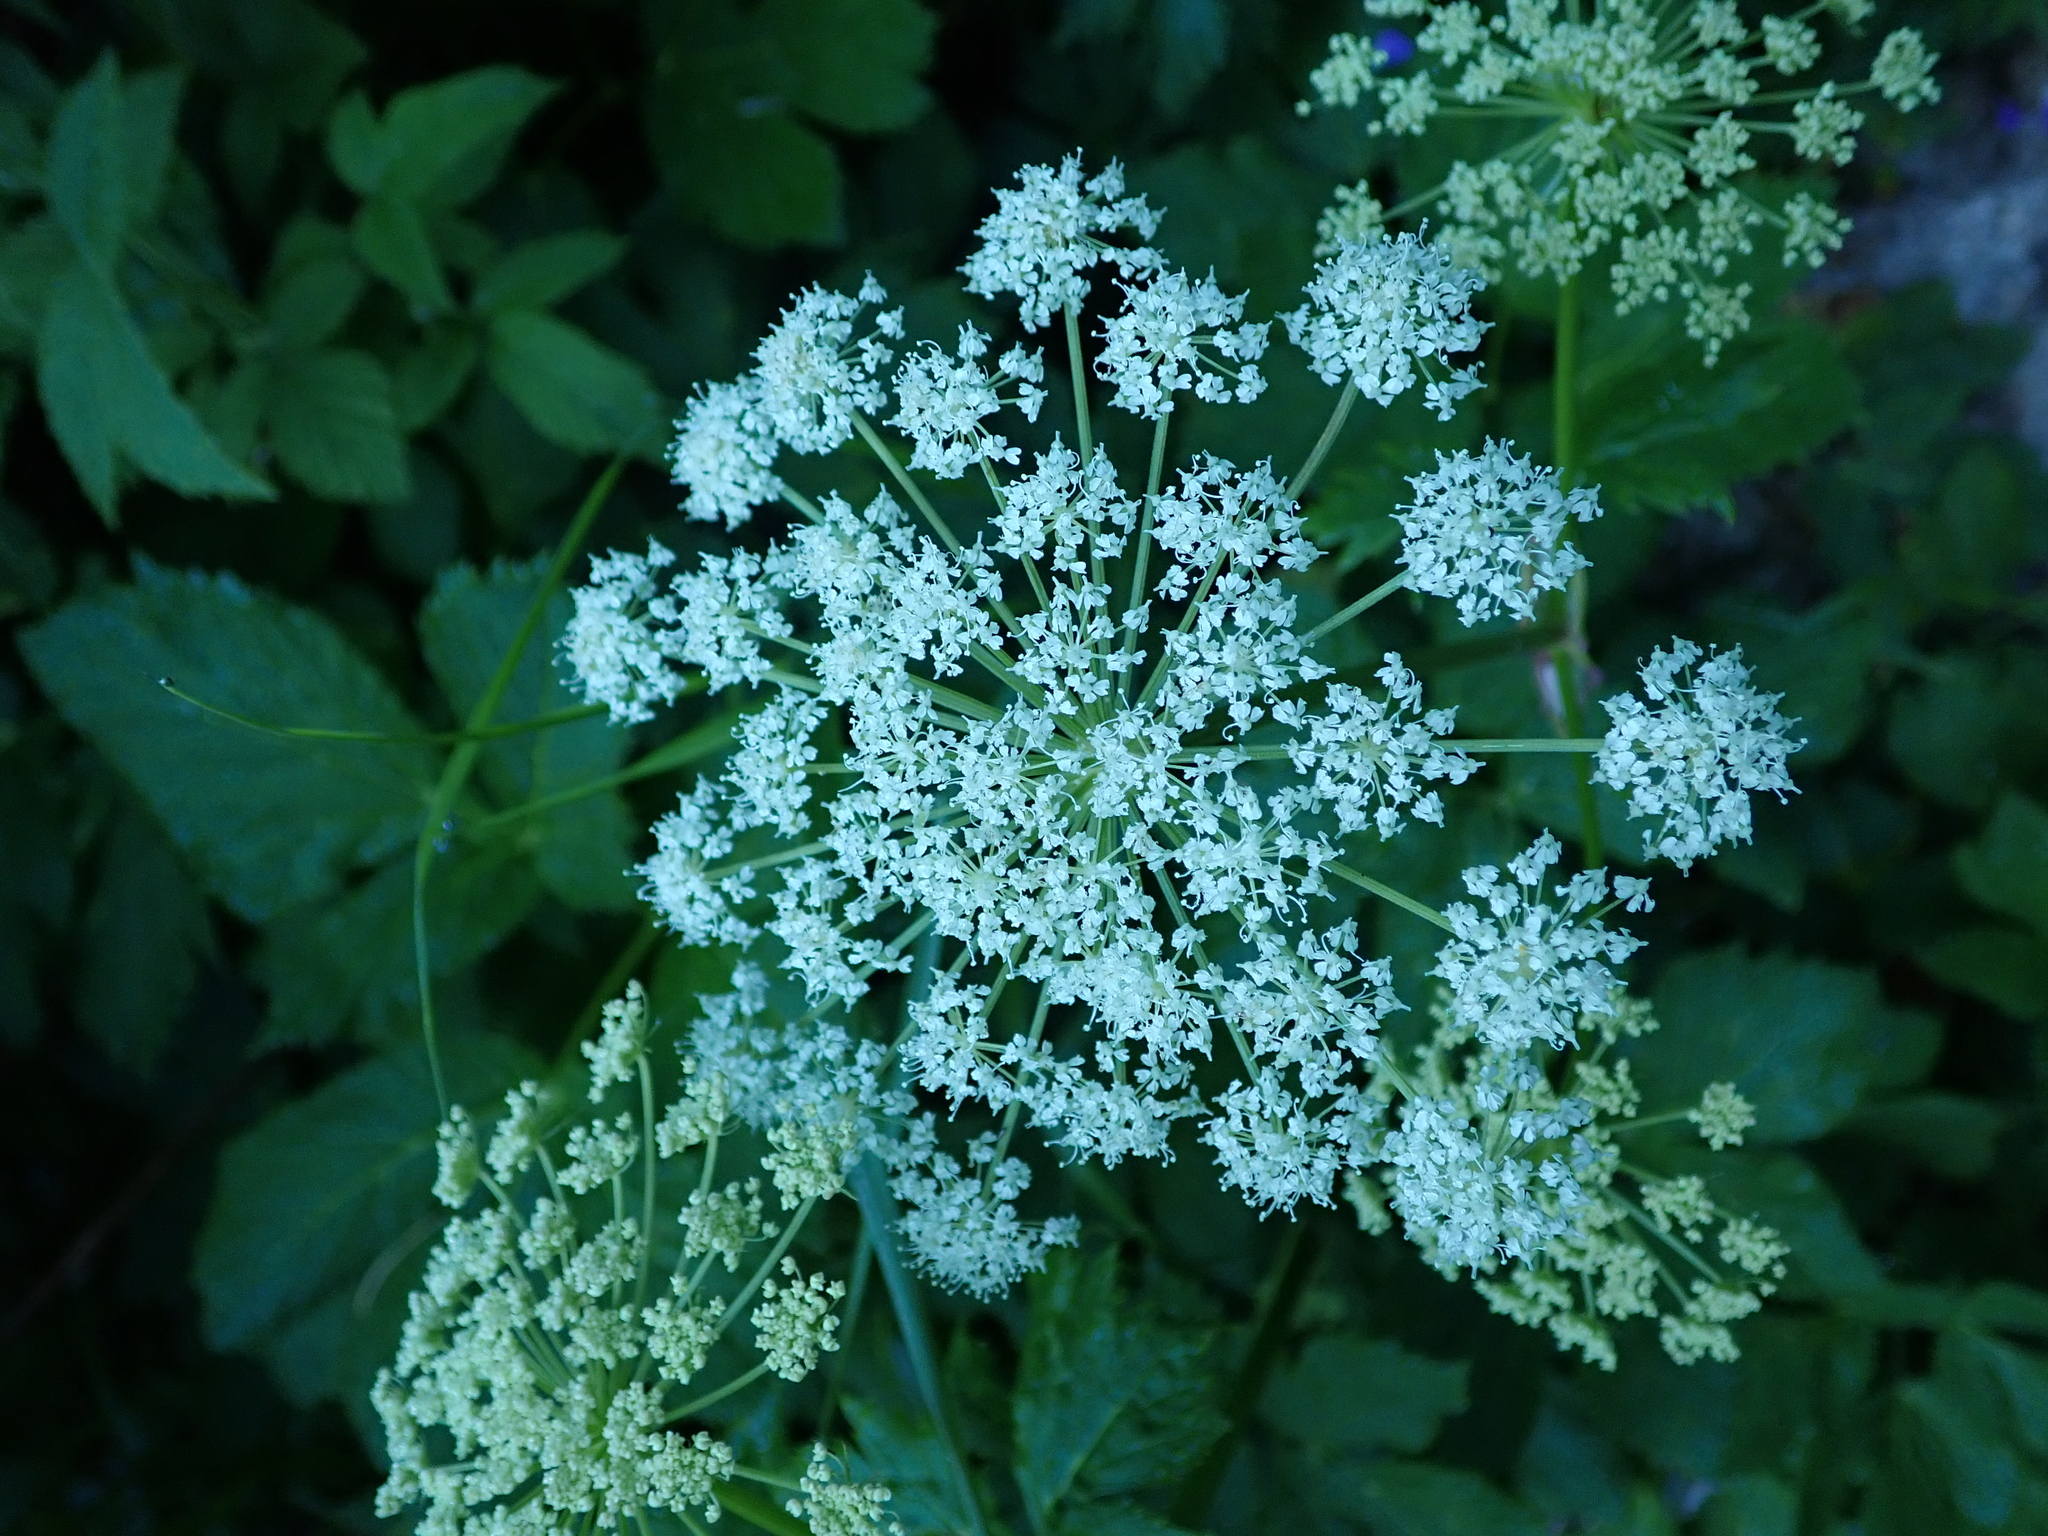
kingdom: Plantae
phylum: Tracheophyta
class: Magnoliopsida
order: Apiales
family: Apiaceae
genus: Aegopodium
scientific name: Aegopodium podagraria
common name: Ground-elder
